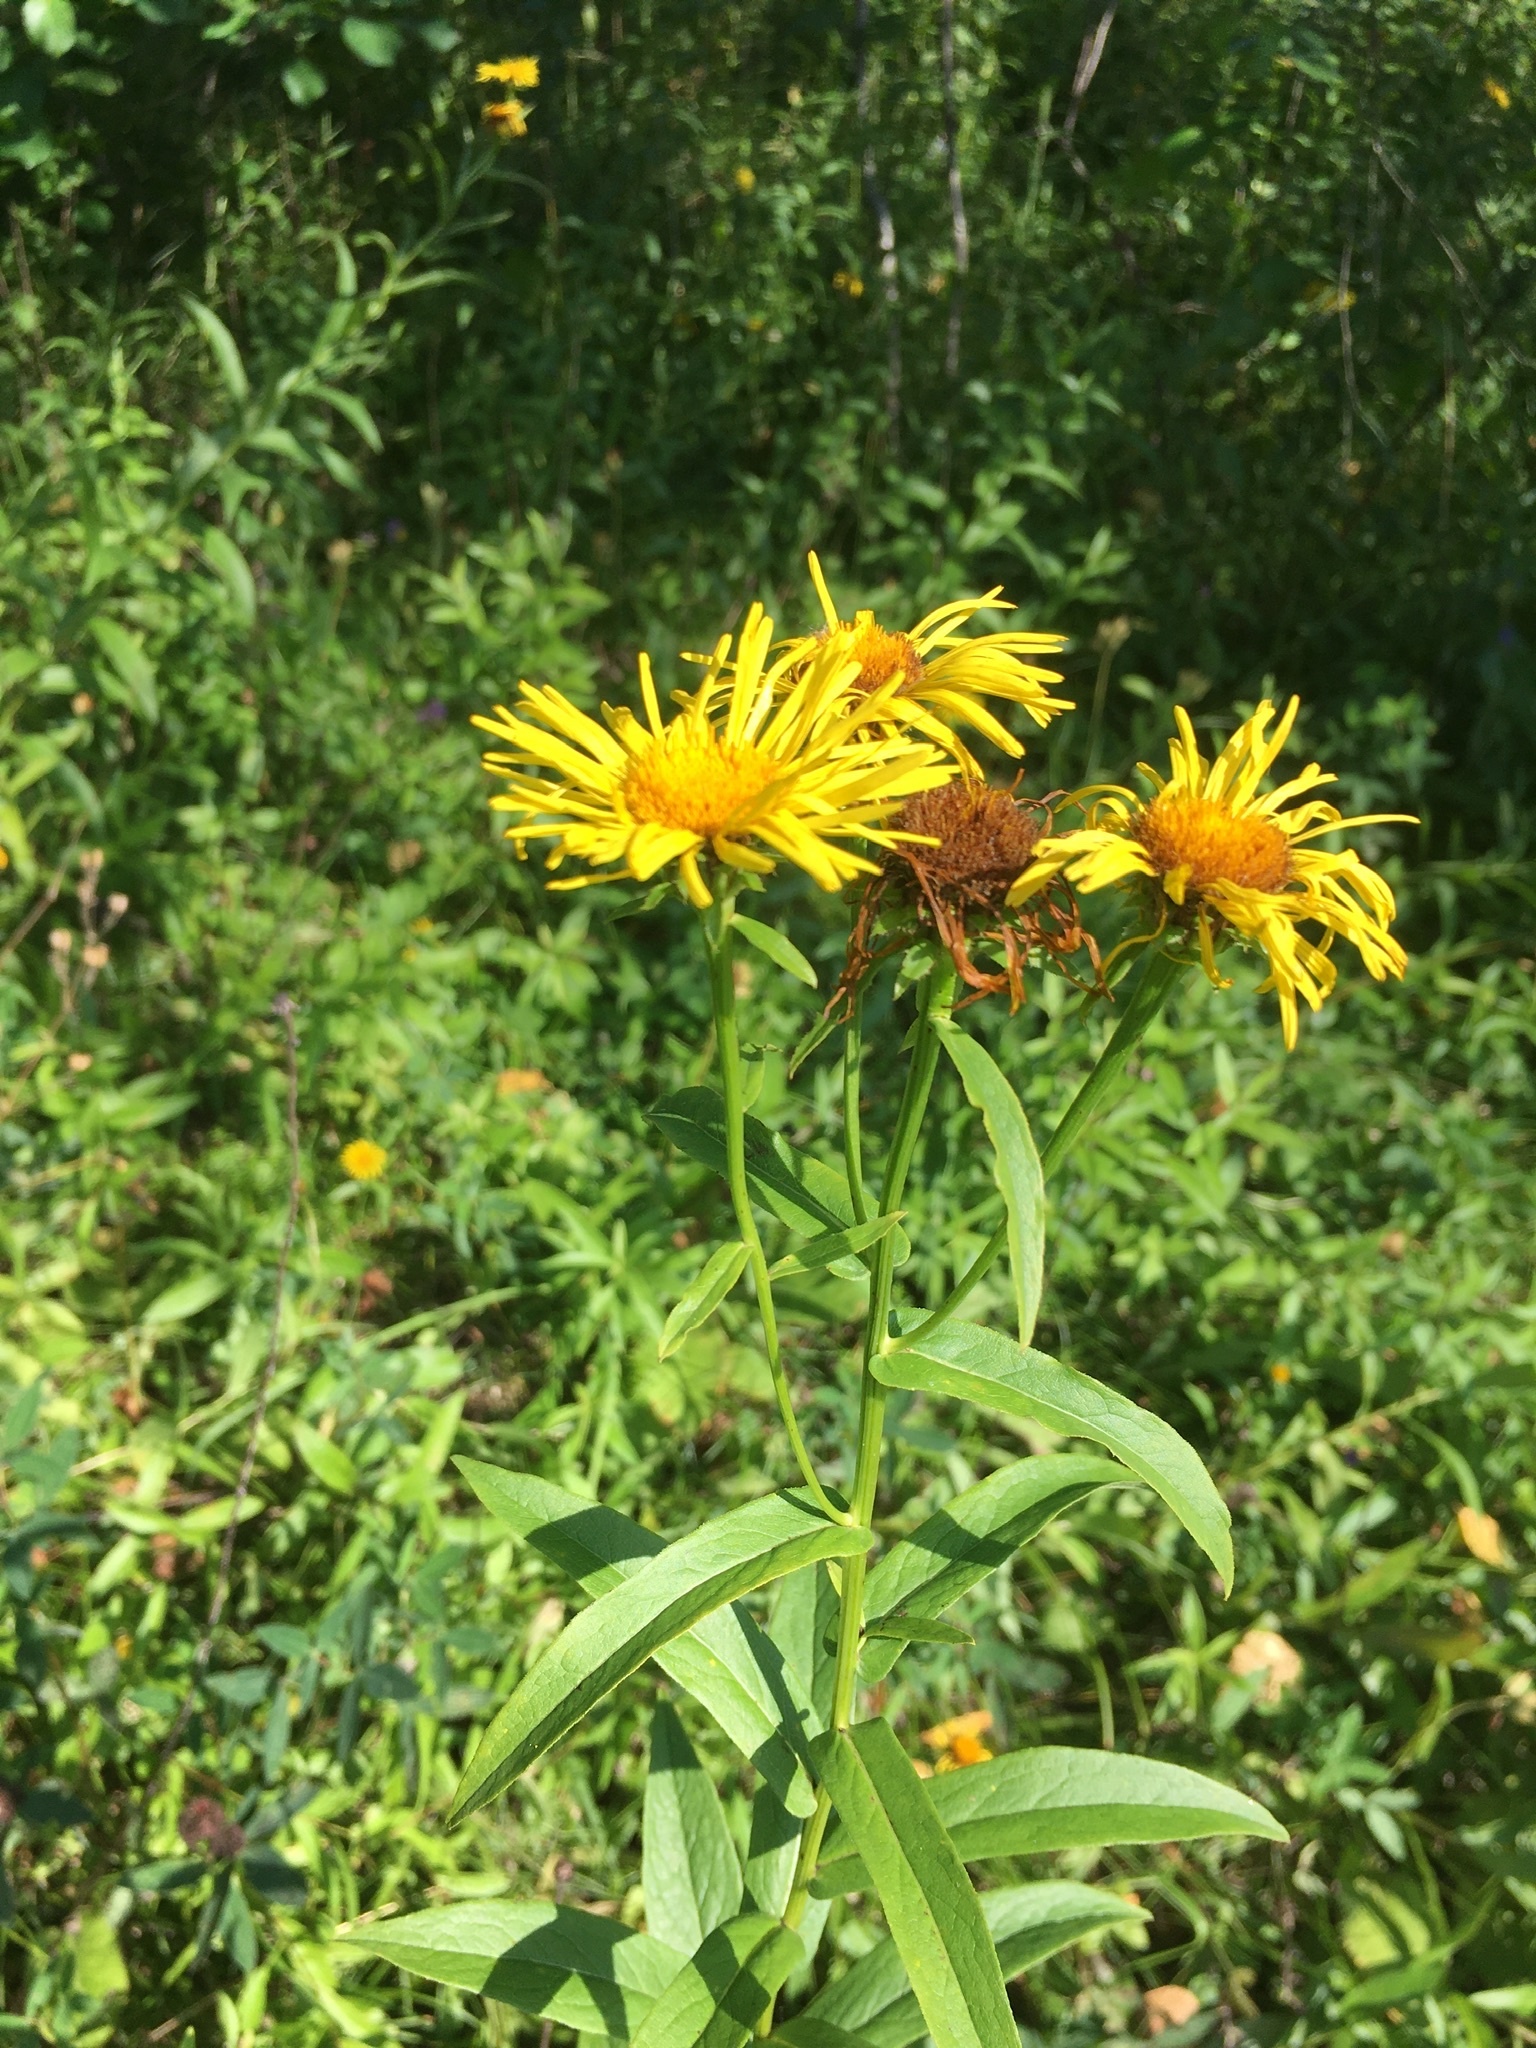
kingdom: Plantae
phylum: Tracheophyta
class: Magnoliopsida
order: Asterales
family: Asteraceae
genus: Pentanema
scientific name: Pentanema salicinum
